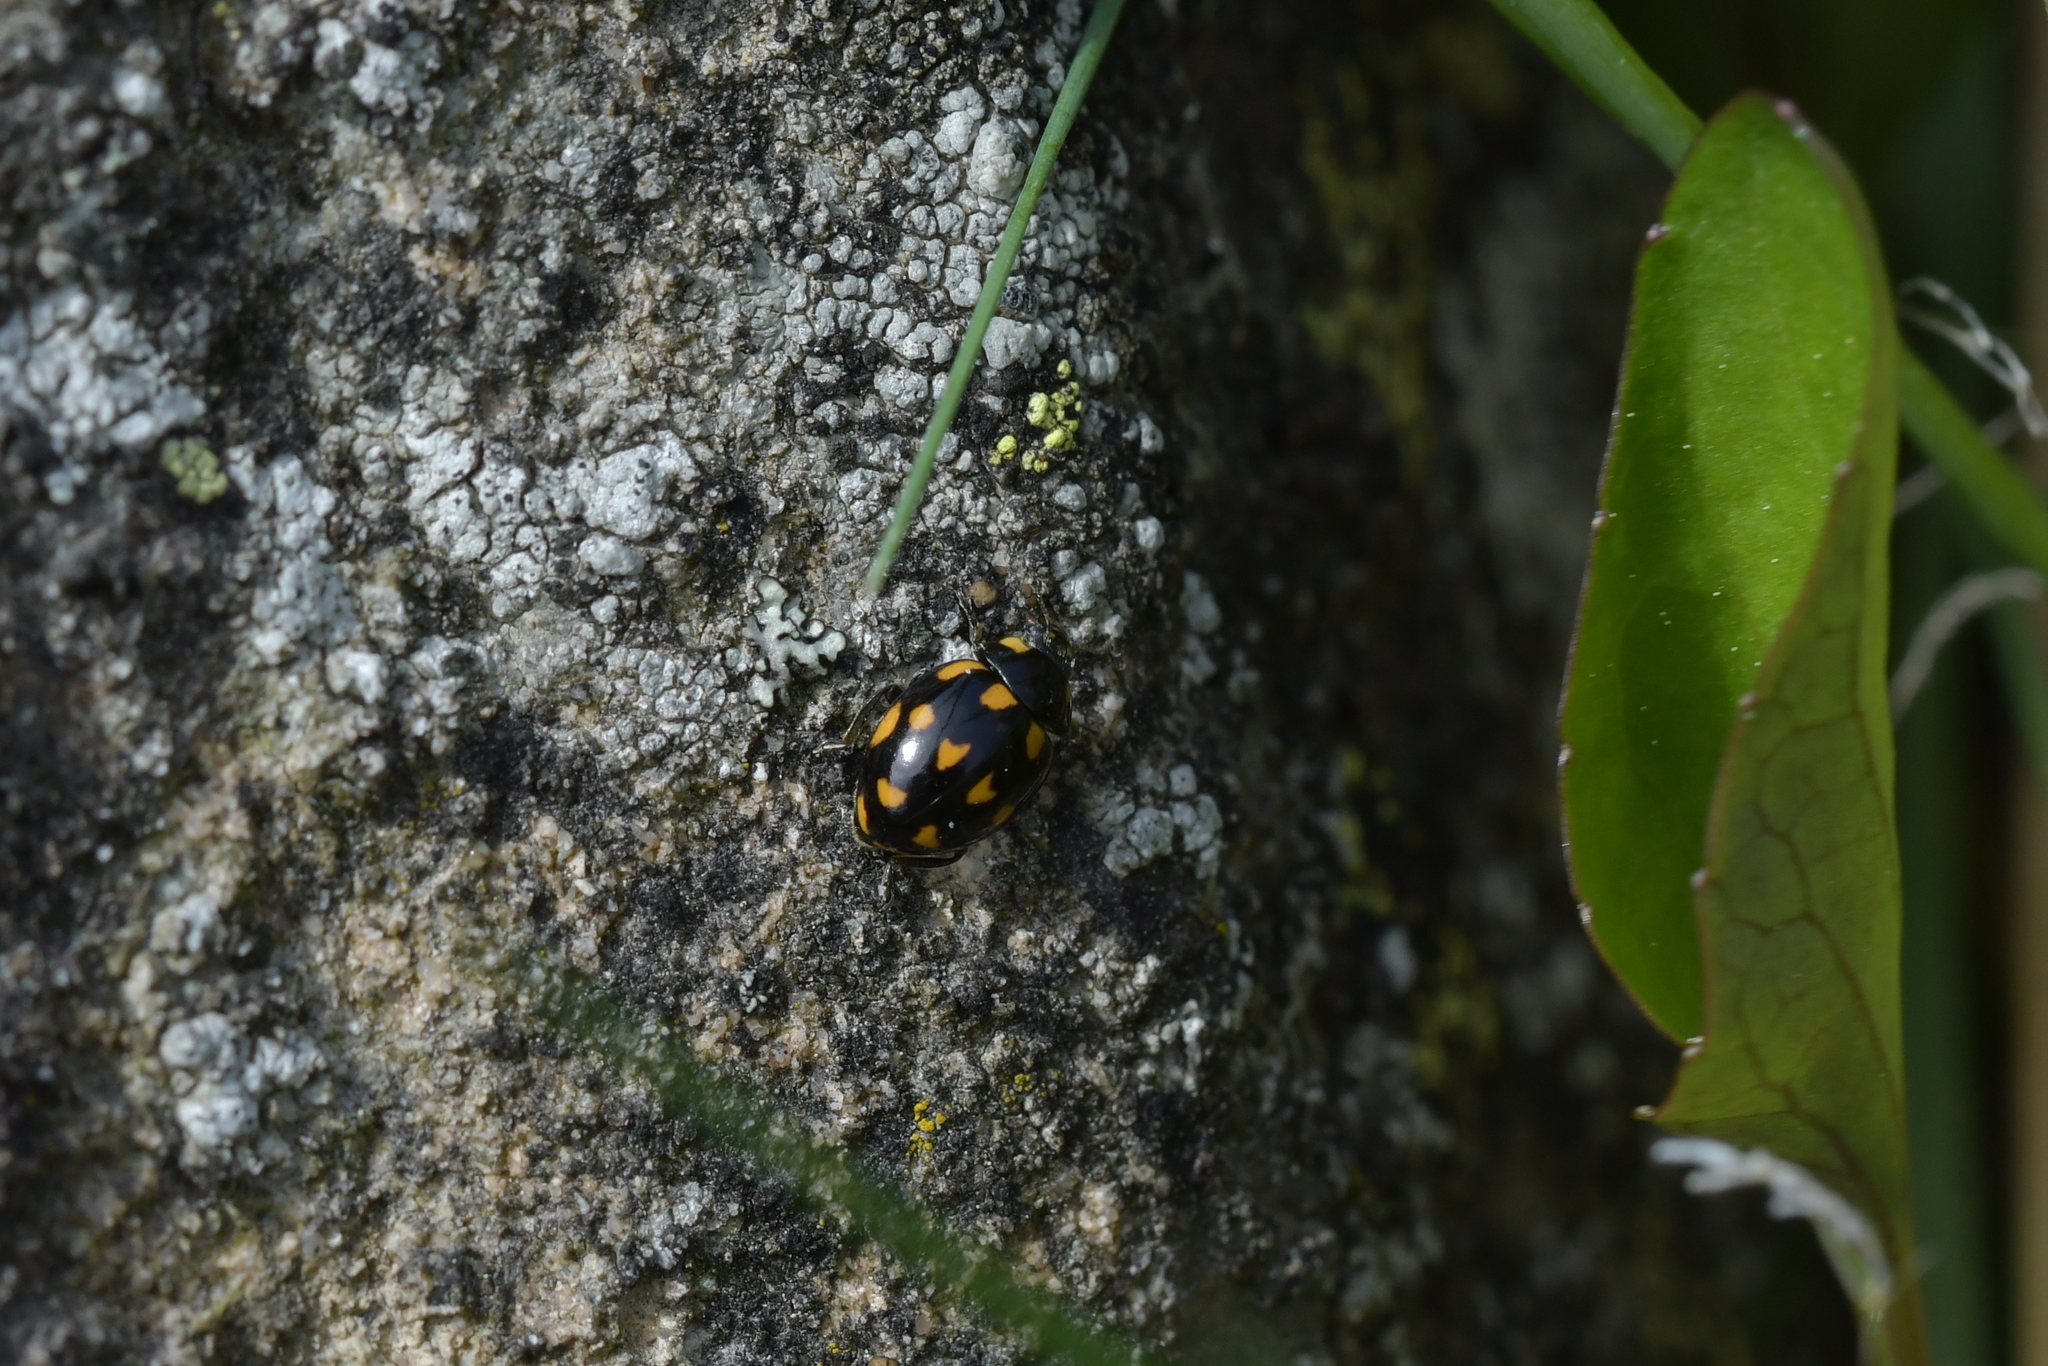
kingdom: Animalia
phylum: Arthropoda
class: Insecta
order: Coleoptera
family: Coccinellidae
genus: Coccinella
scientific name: Coccinella leonina
